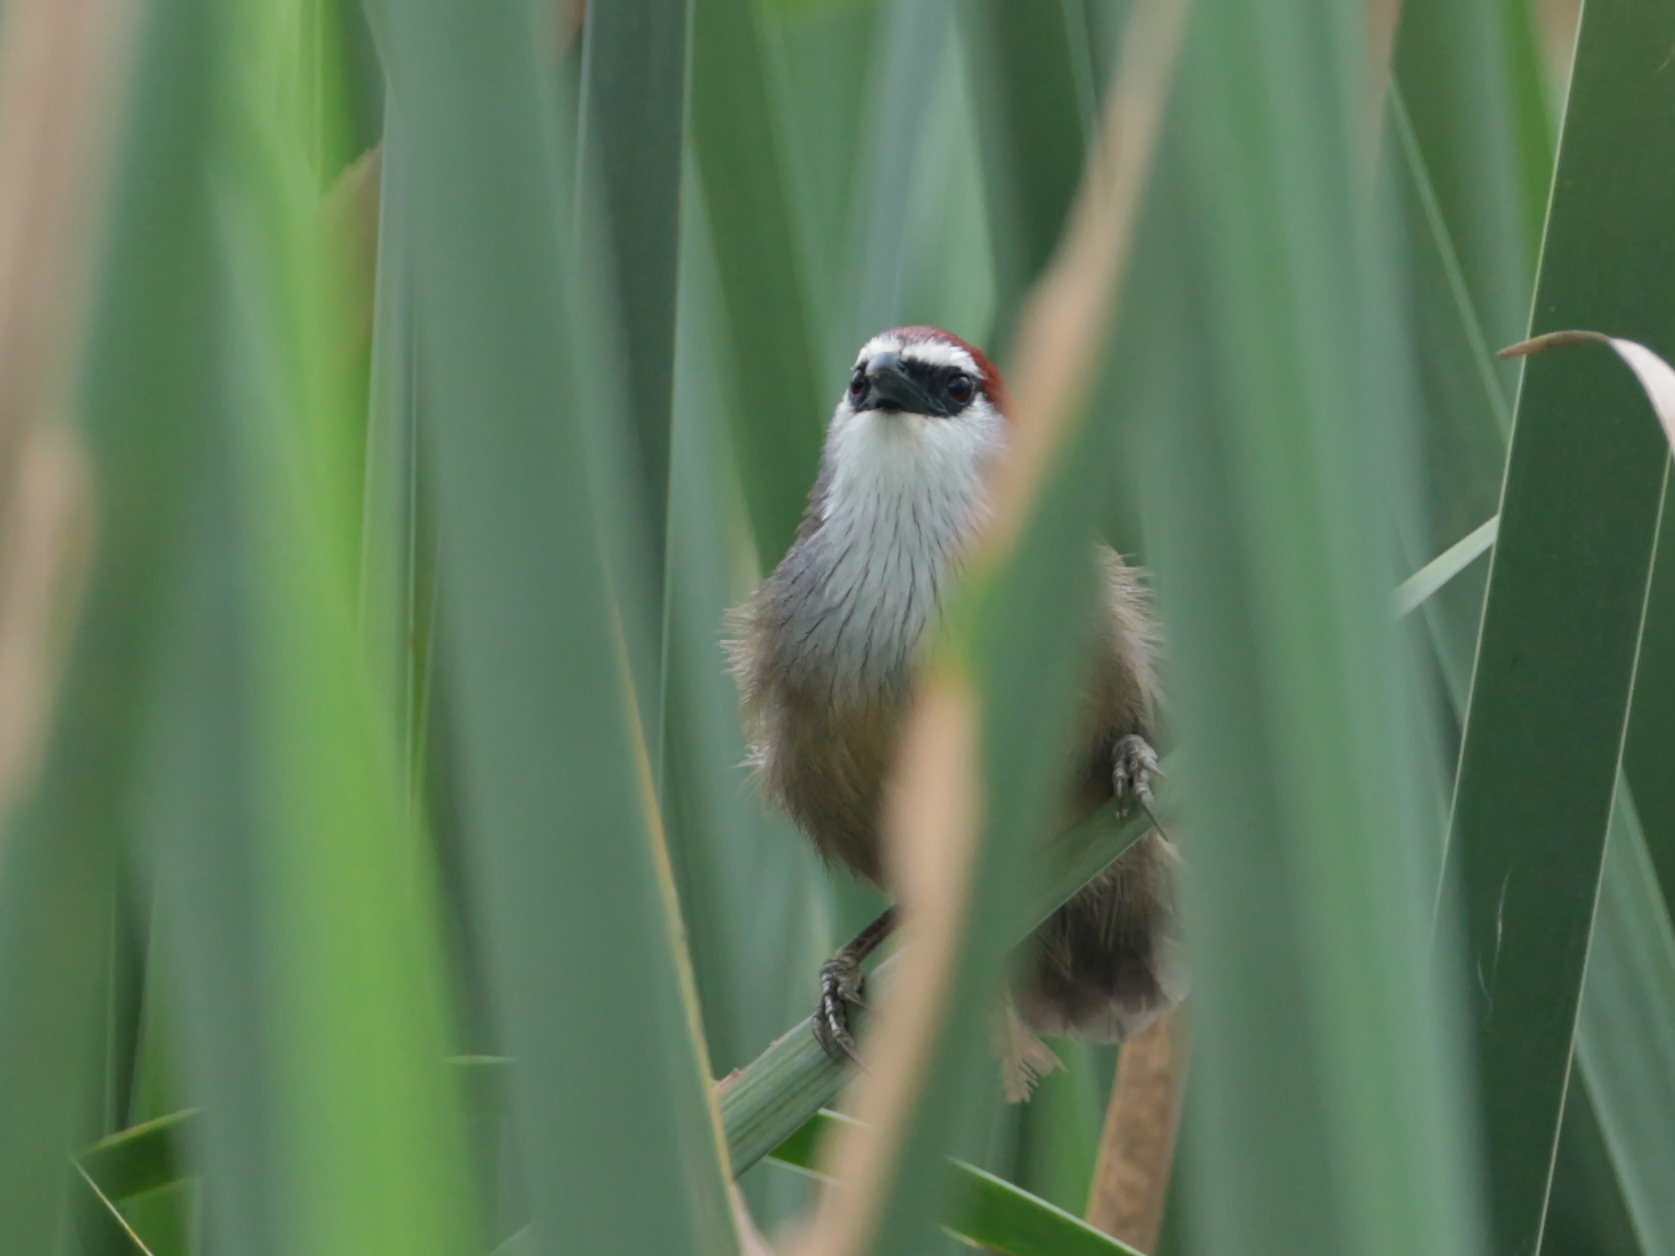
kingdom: Animalia
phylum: Chordata
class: Aves
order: Passeriformes
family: Timaliidae
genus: Timalia
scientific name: Timalia pileata
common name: Chestnut-capped babbler
